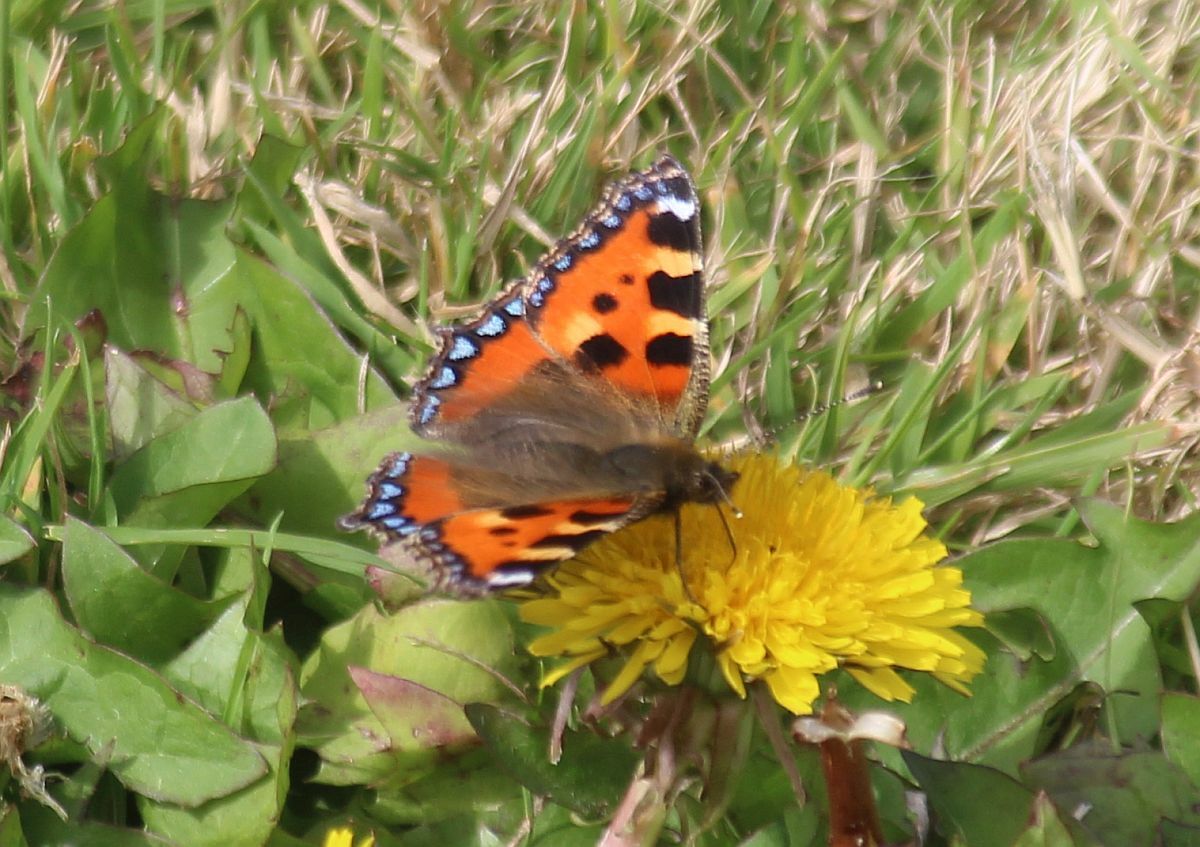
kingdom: Animalia
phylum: Arthropoda
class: Insecta
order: Lepidoptera
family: Nymphalidae
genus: Aglais
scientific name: Aglais urticae
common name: Small tortoiseshell
